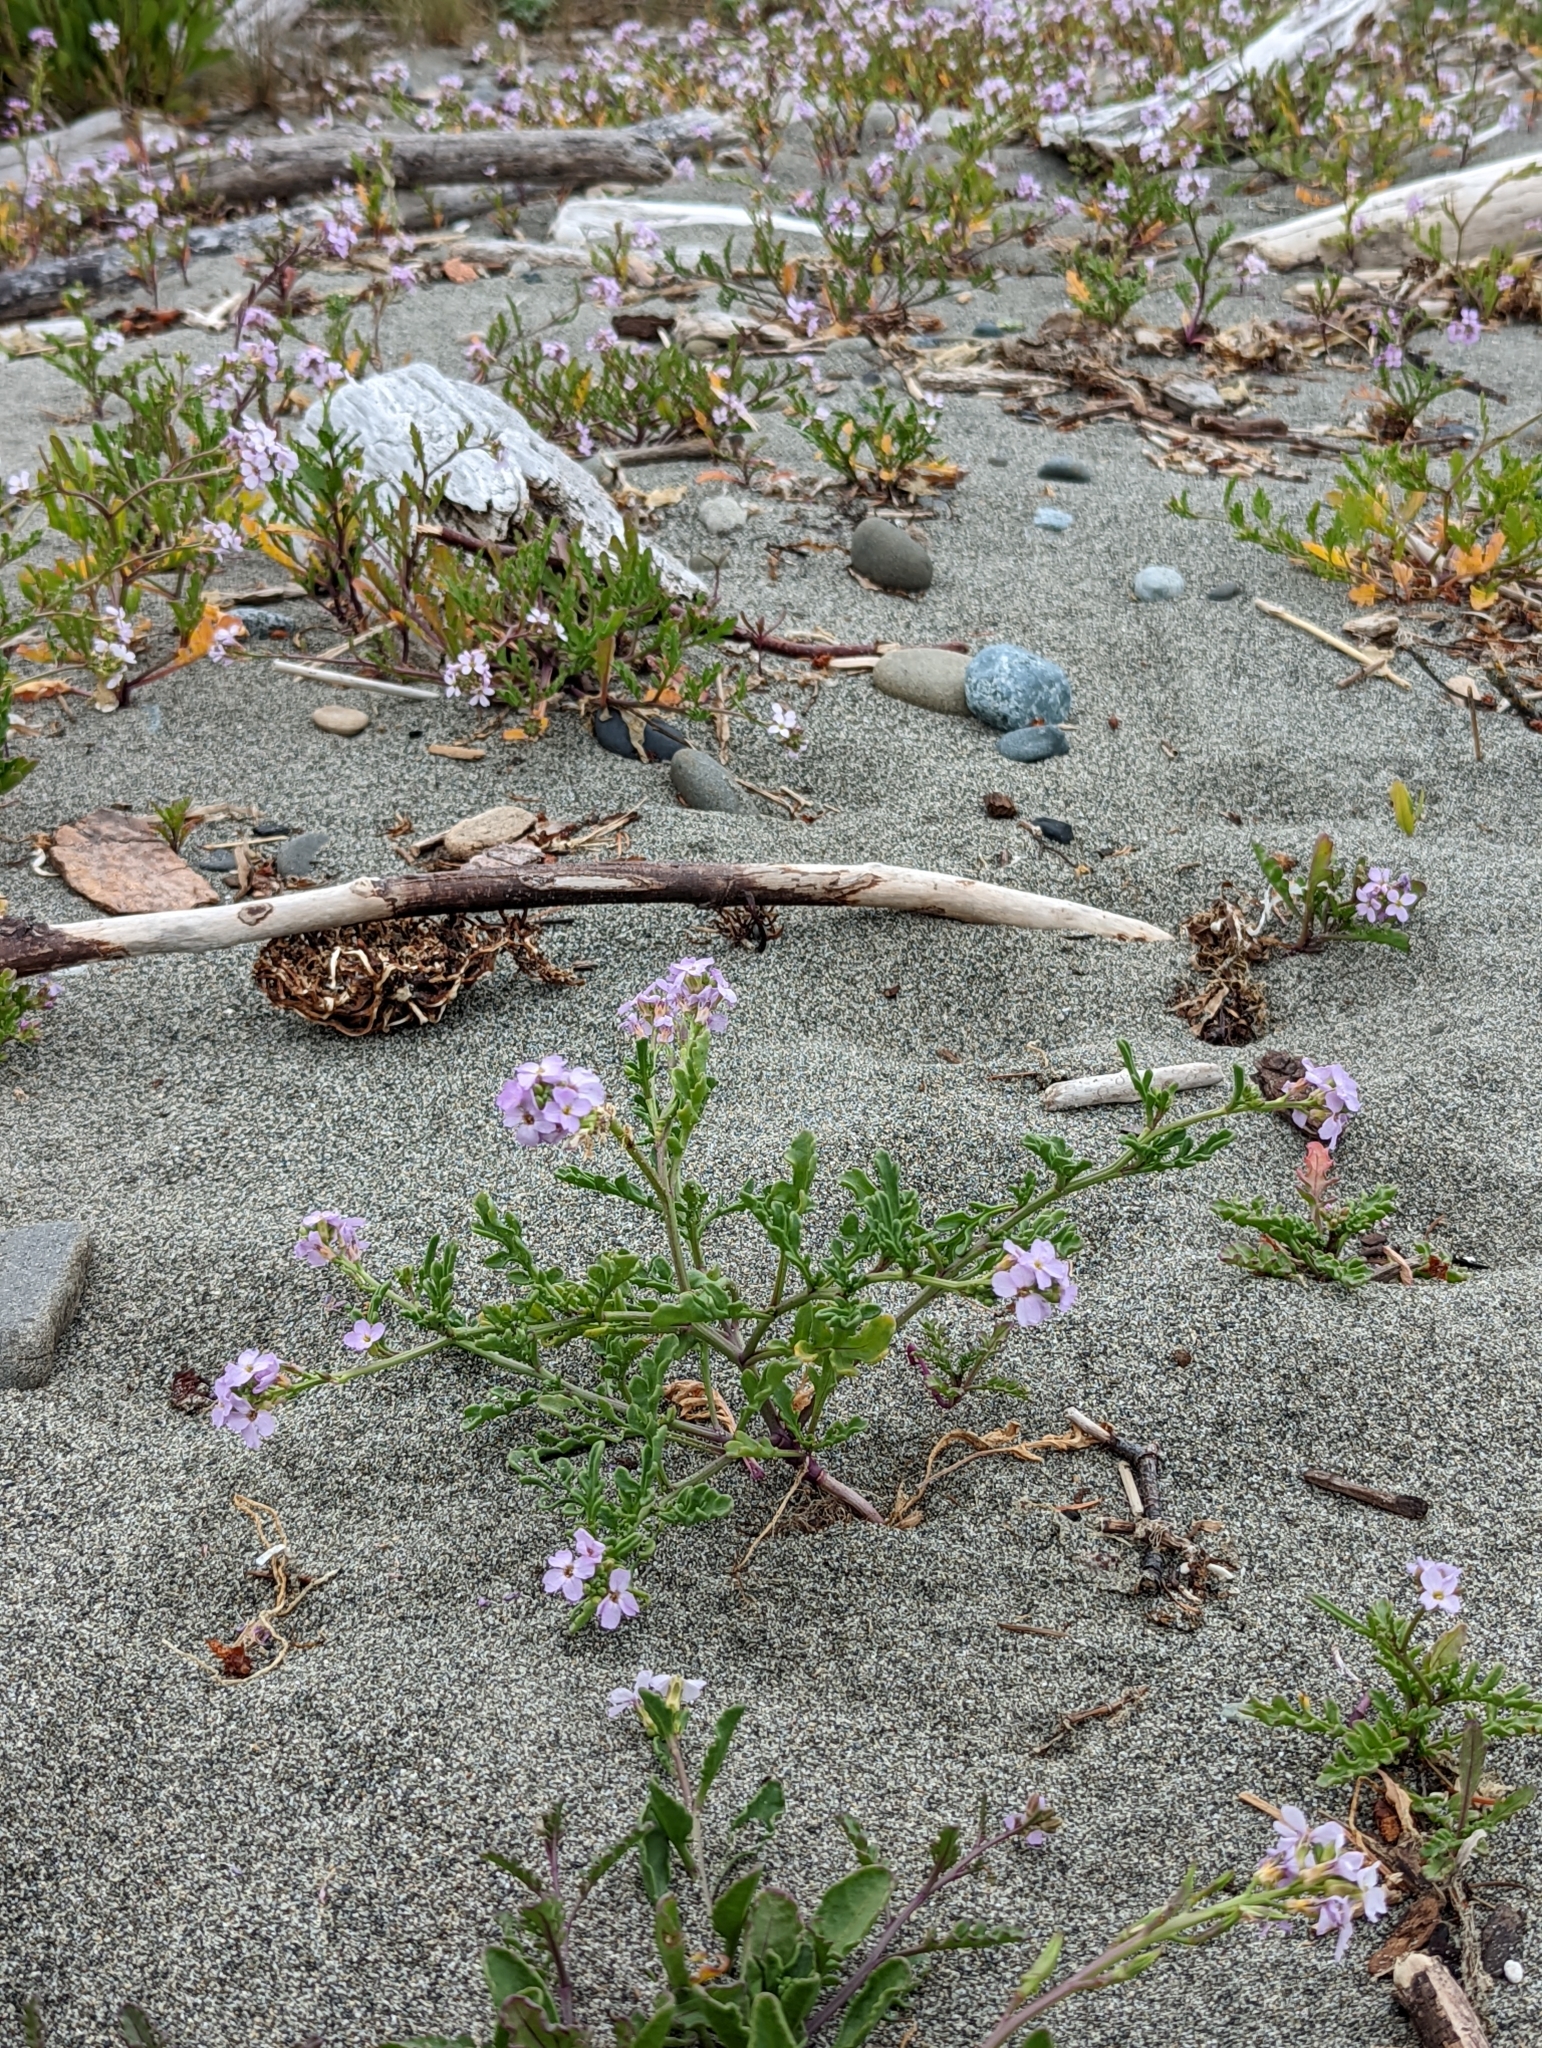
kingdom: Plantae
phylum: Tracheophyta
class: Magnoliopsida
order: Brassicales
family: Brassicaceae
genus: Cakile
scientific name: Cakile maritima
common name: Sea rocket
